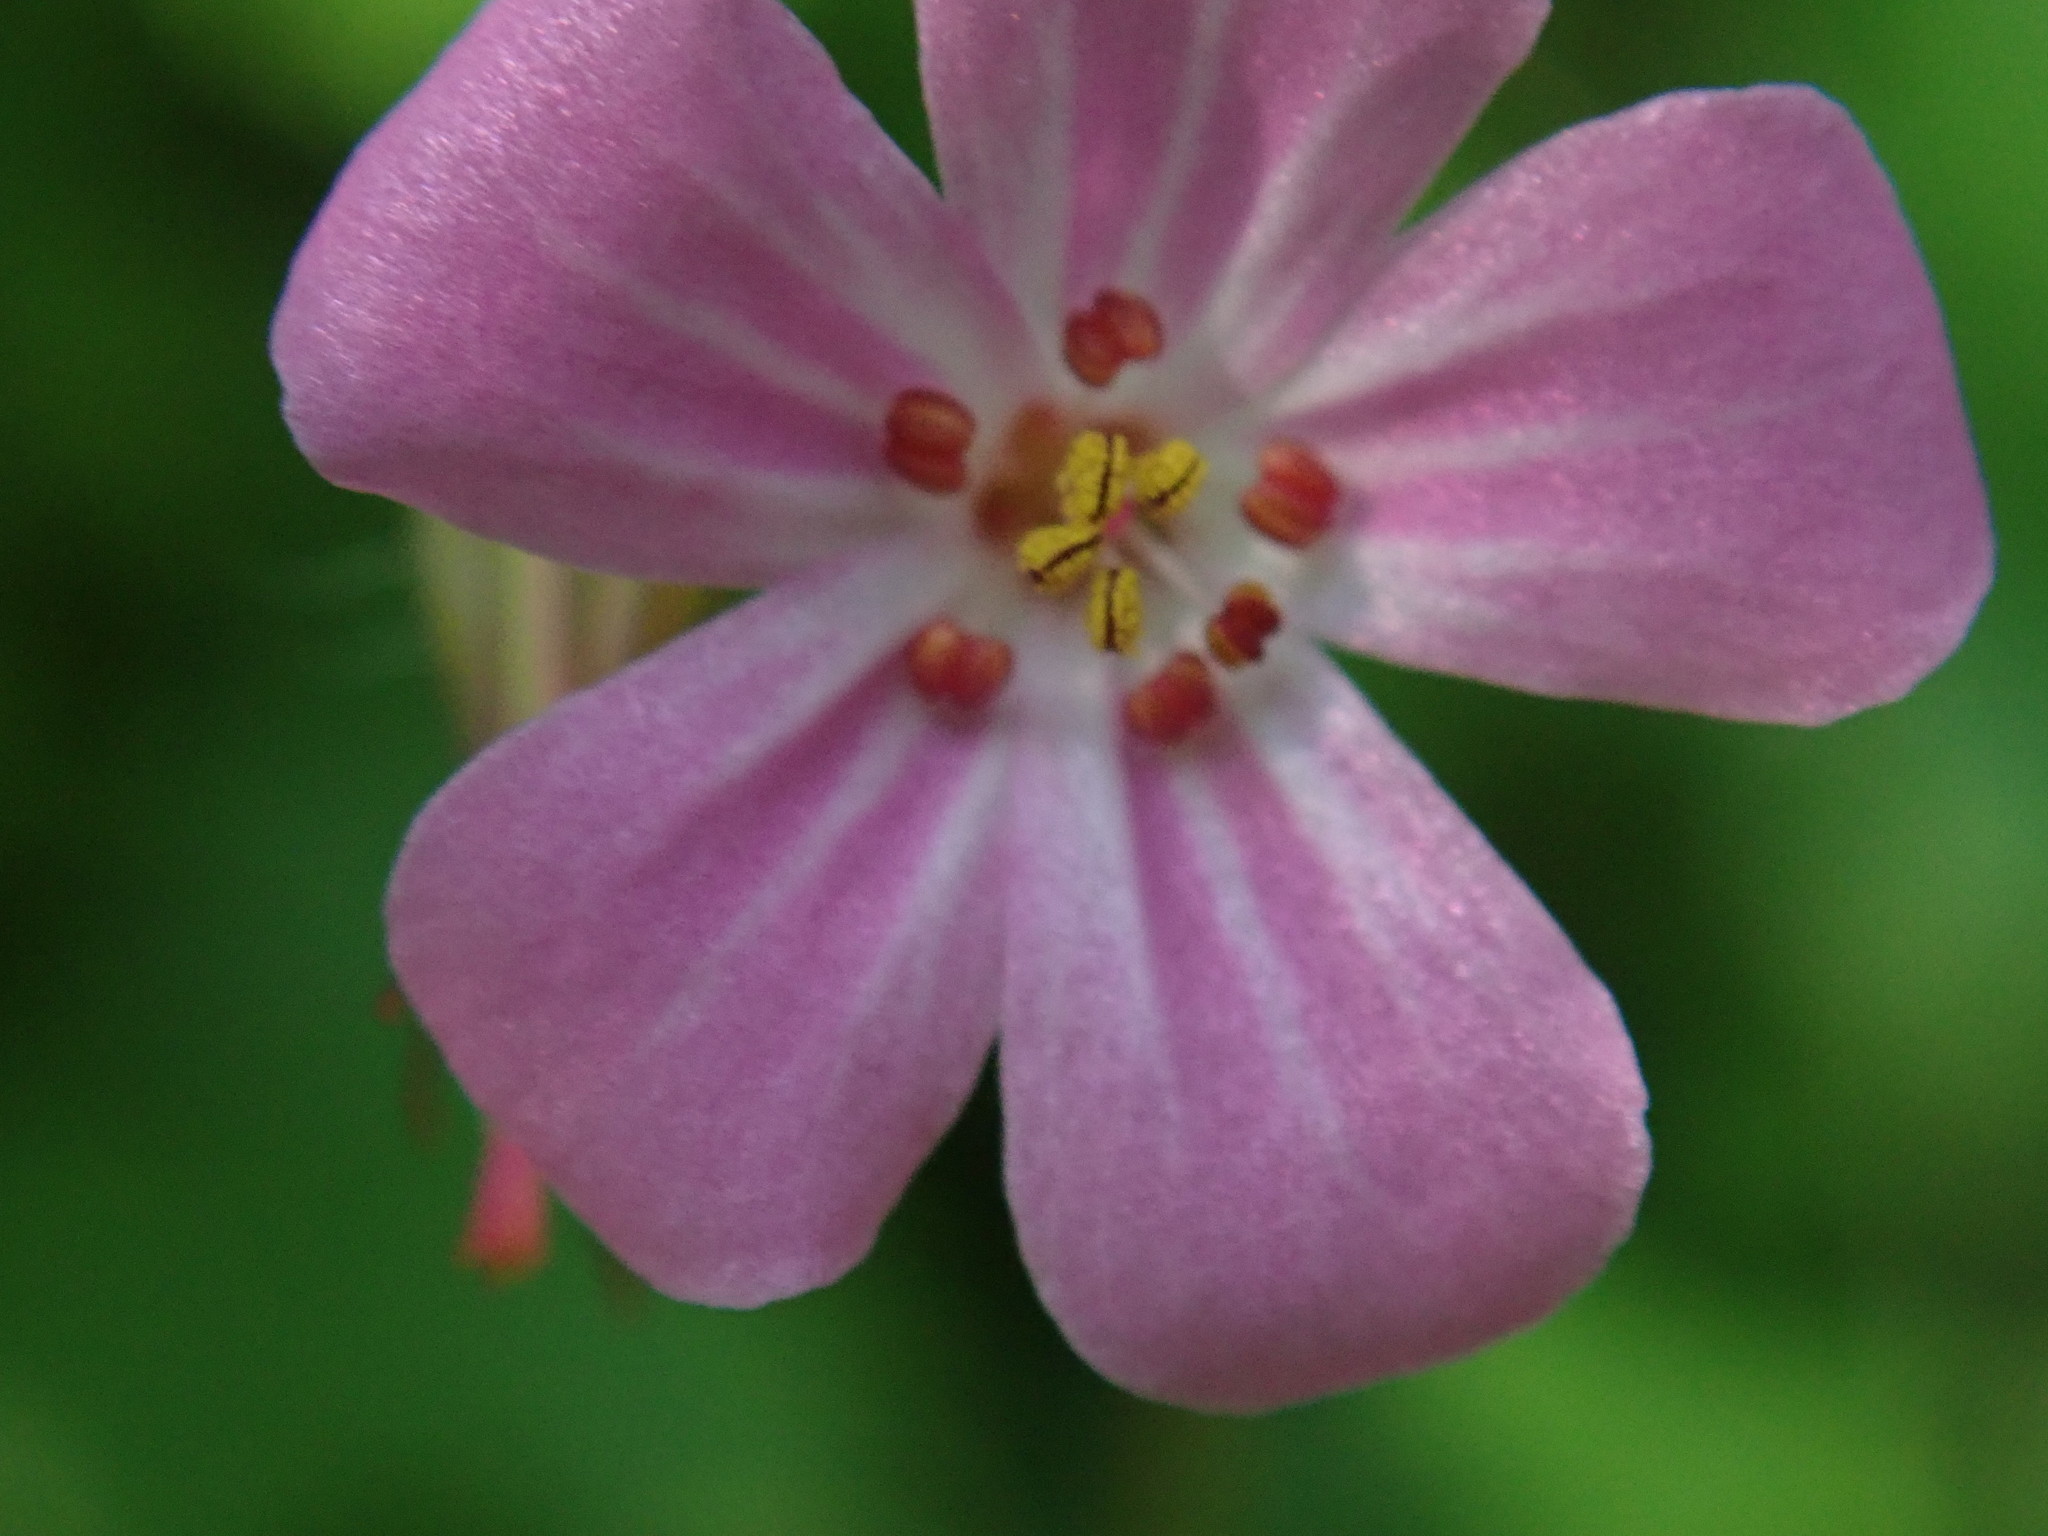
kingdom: Plantae
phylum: Tracheophyta
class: Magnoliopsida
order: Geraniales
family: Geraniaceae
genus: Geranium
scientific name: Geranium robertianum
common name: Herb-robert
